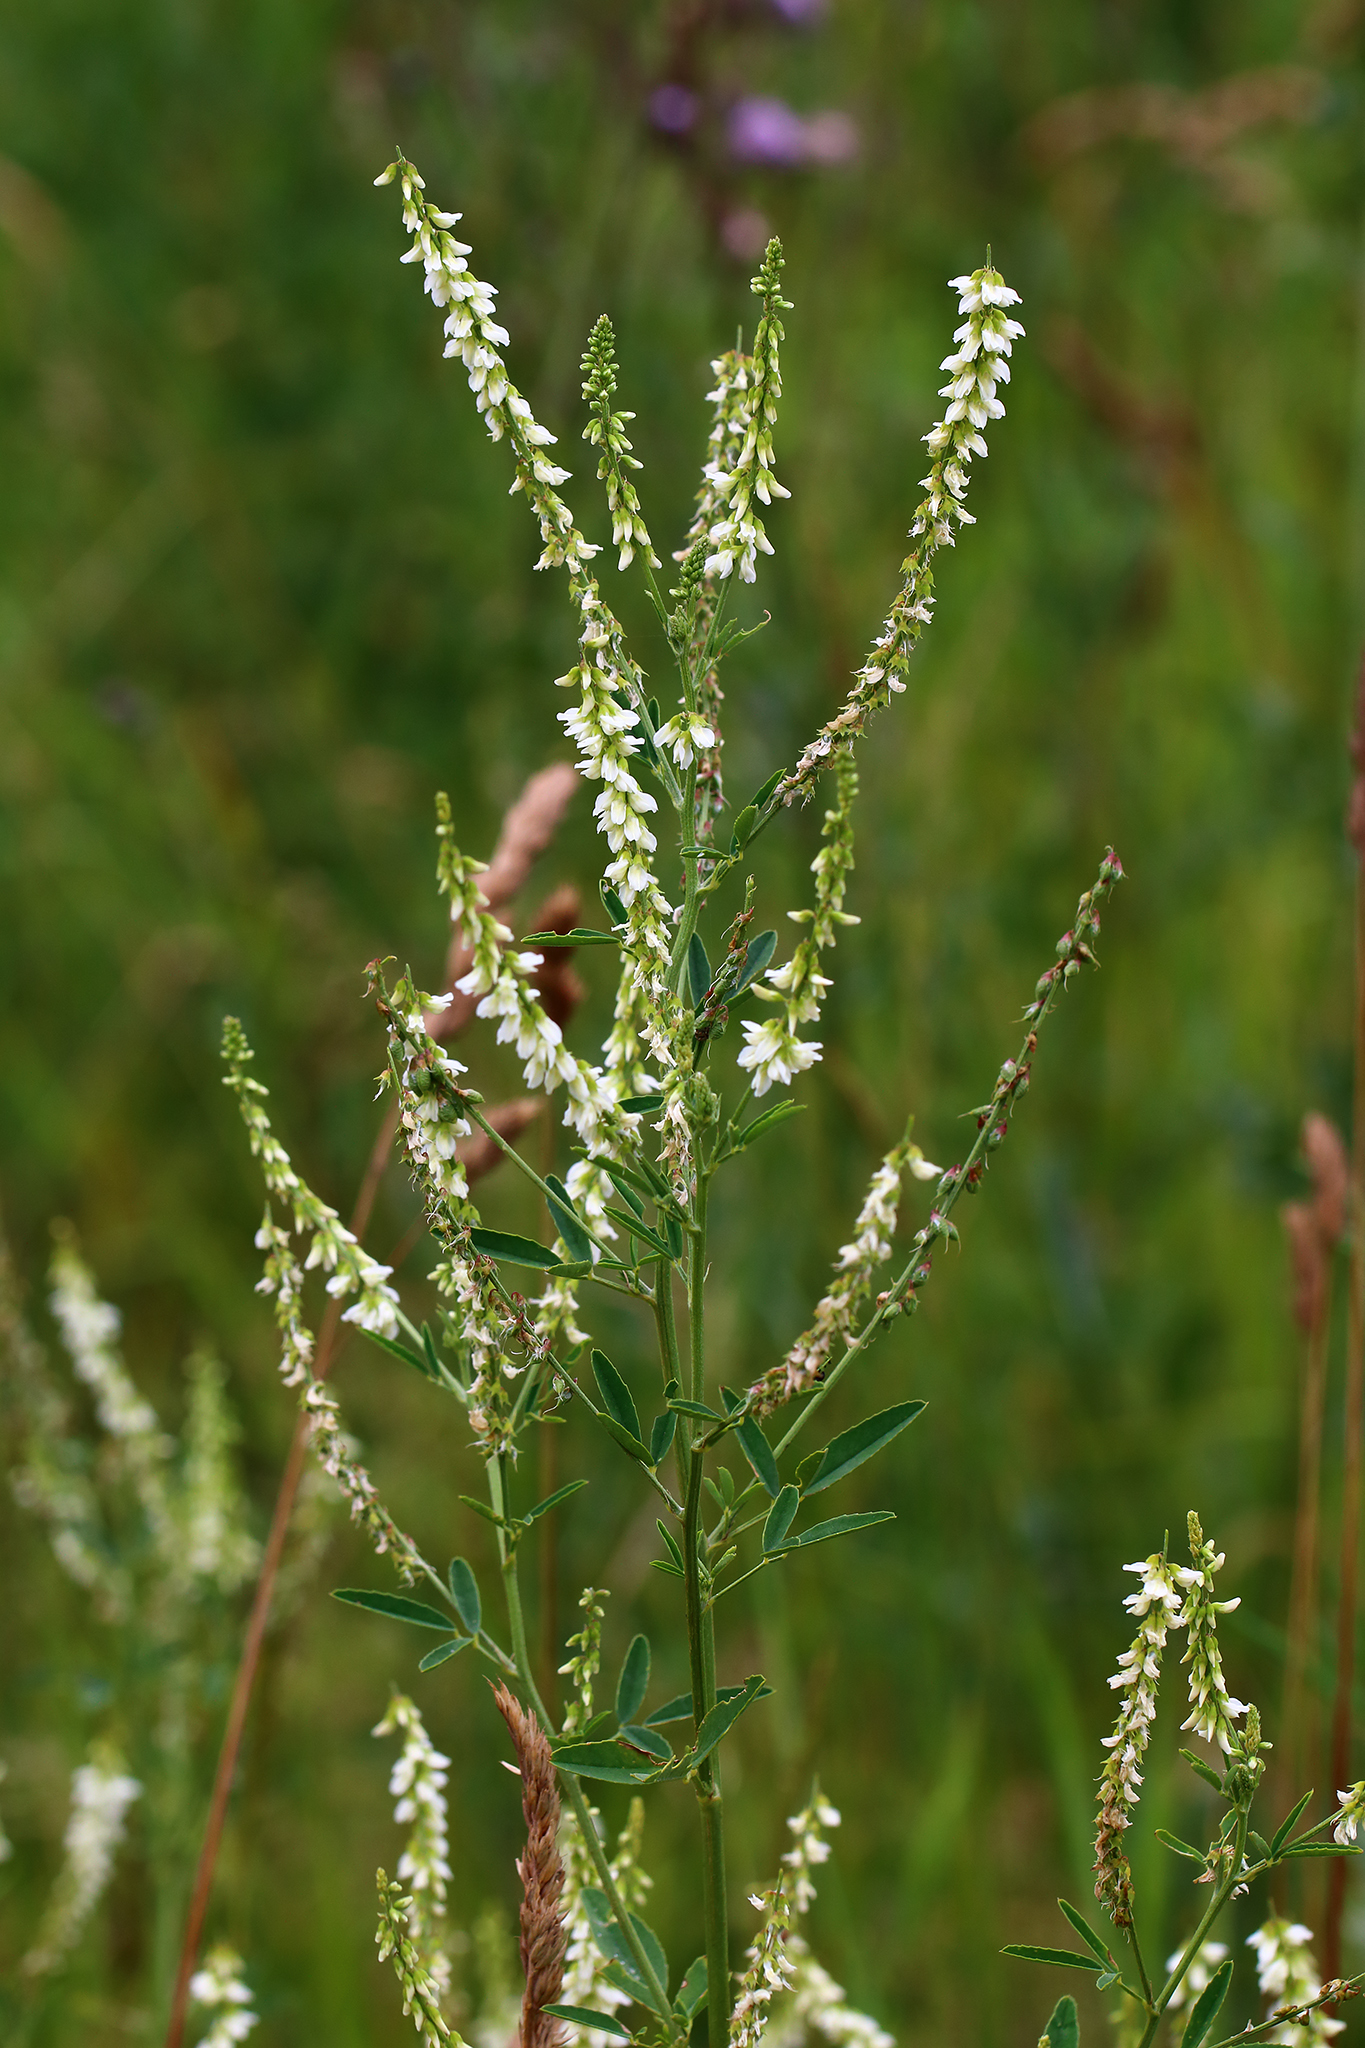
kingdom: Plantae
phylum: Tracheophyta
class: Magnoliopsida
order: Fabales
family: Fabaceae
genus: Melilotus
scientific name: Melilotus albus
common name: White melilot
